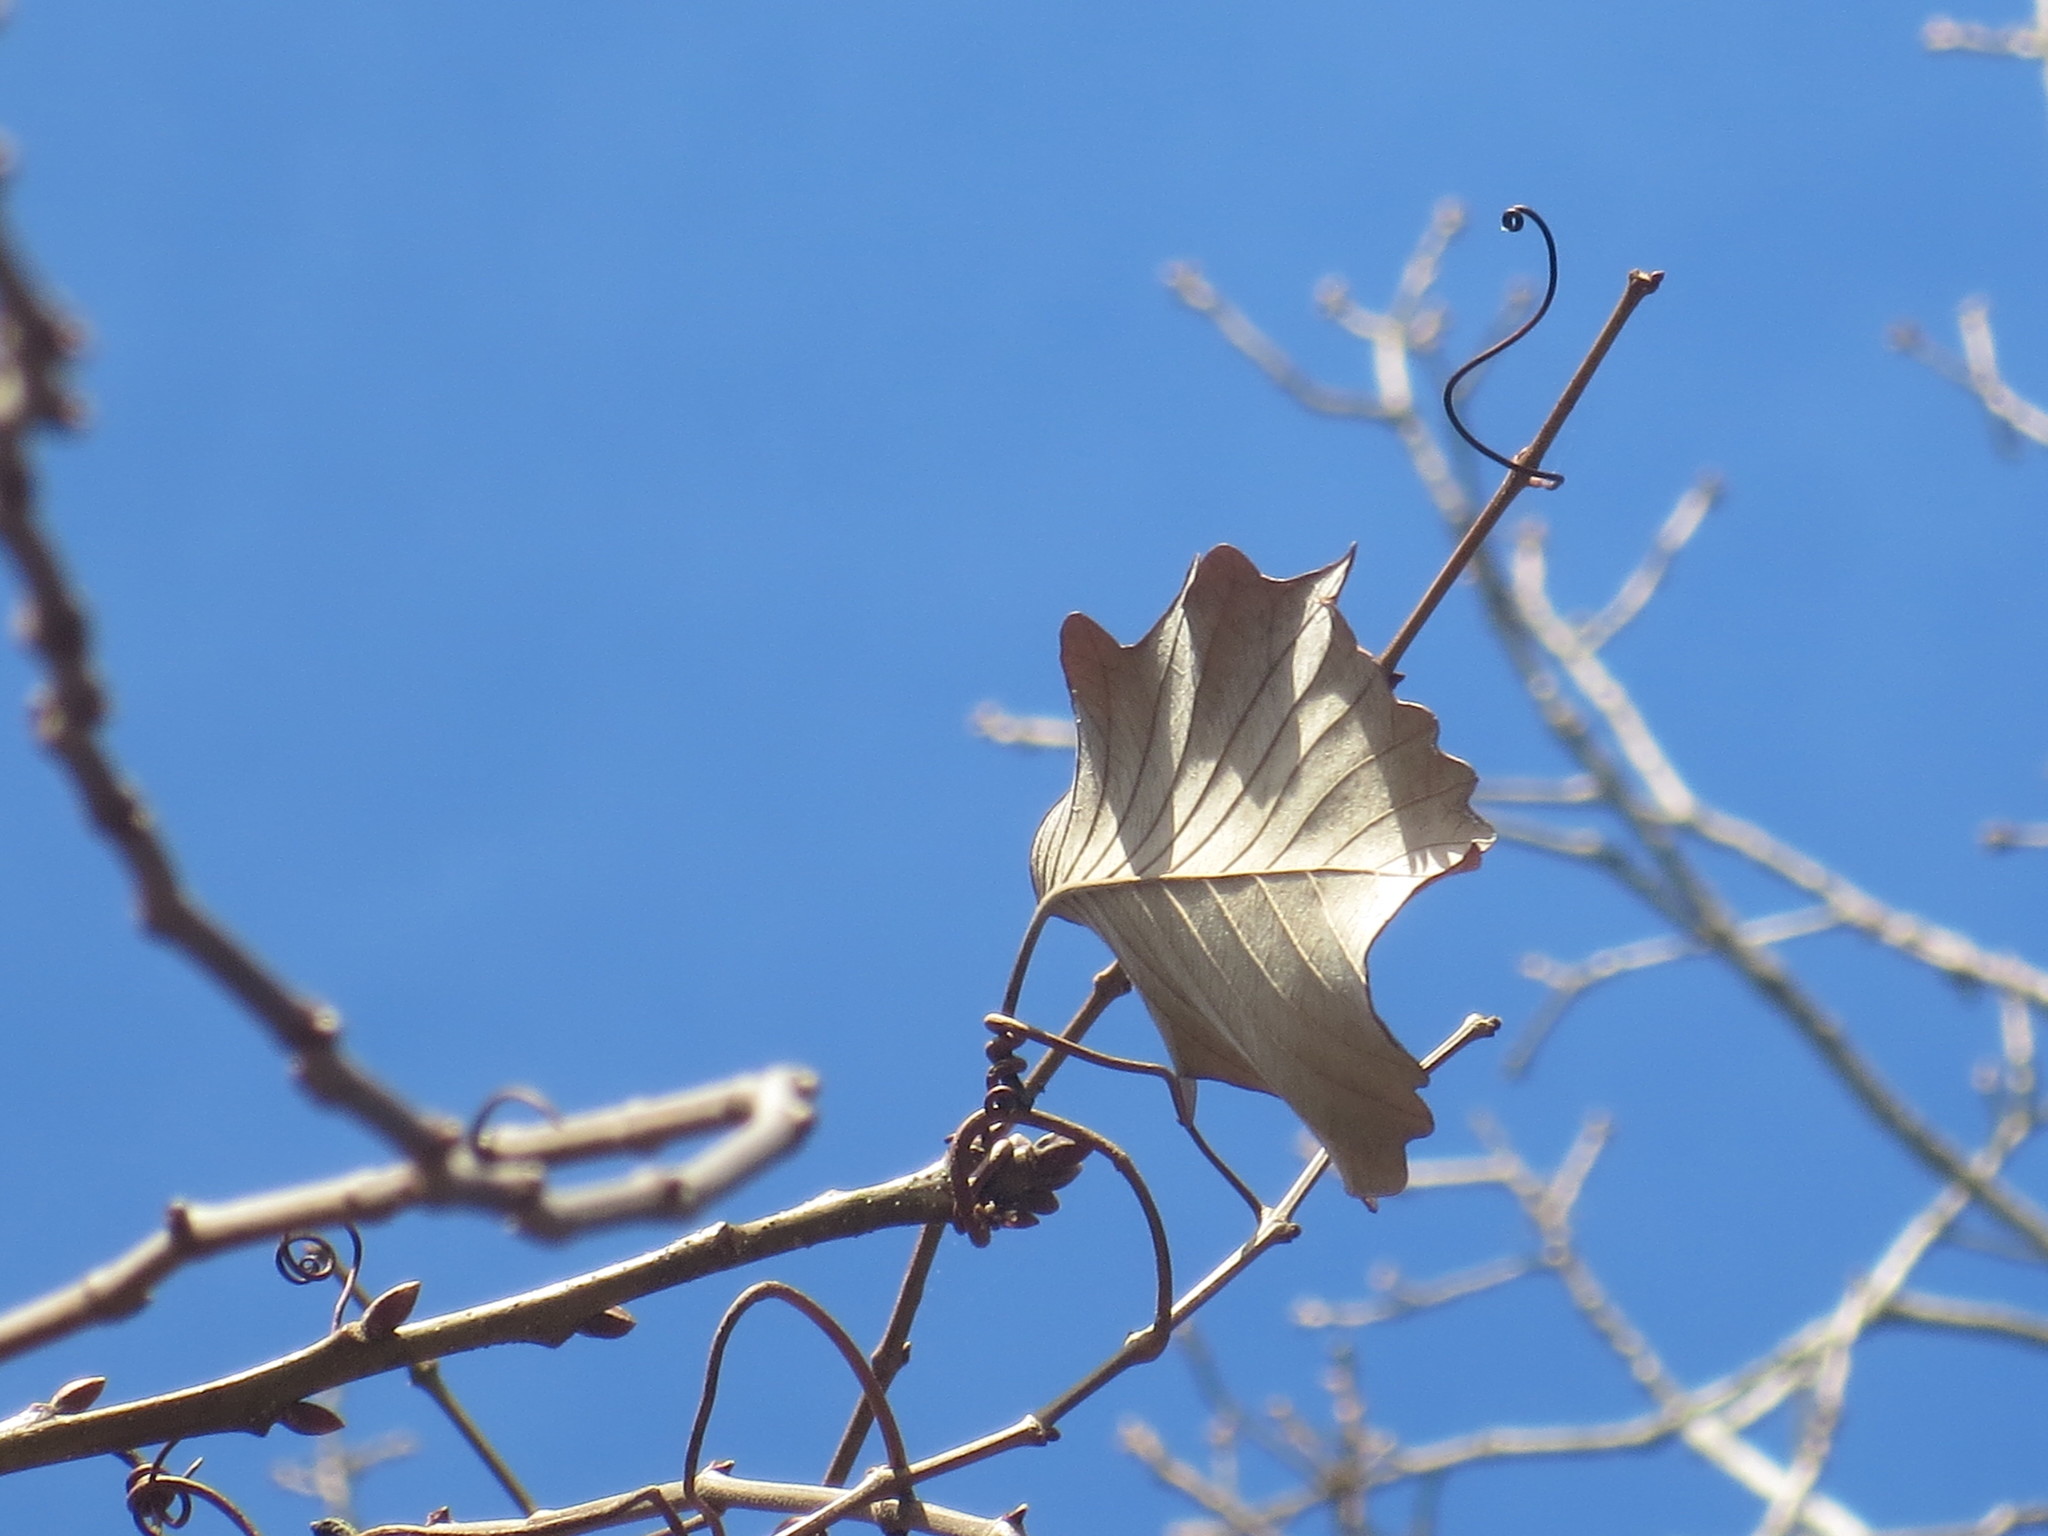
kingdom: Plantae
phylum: Tracheophyta
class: Magnoliopsida
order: Fagales
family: Fagaceae
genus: Quercus
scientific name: Quercus michauxii
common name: Swamp chestnut oak
